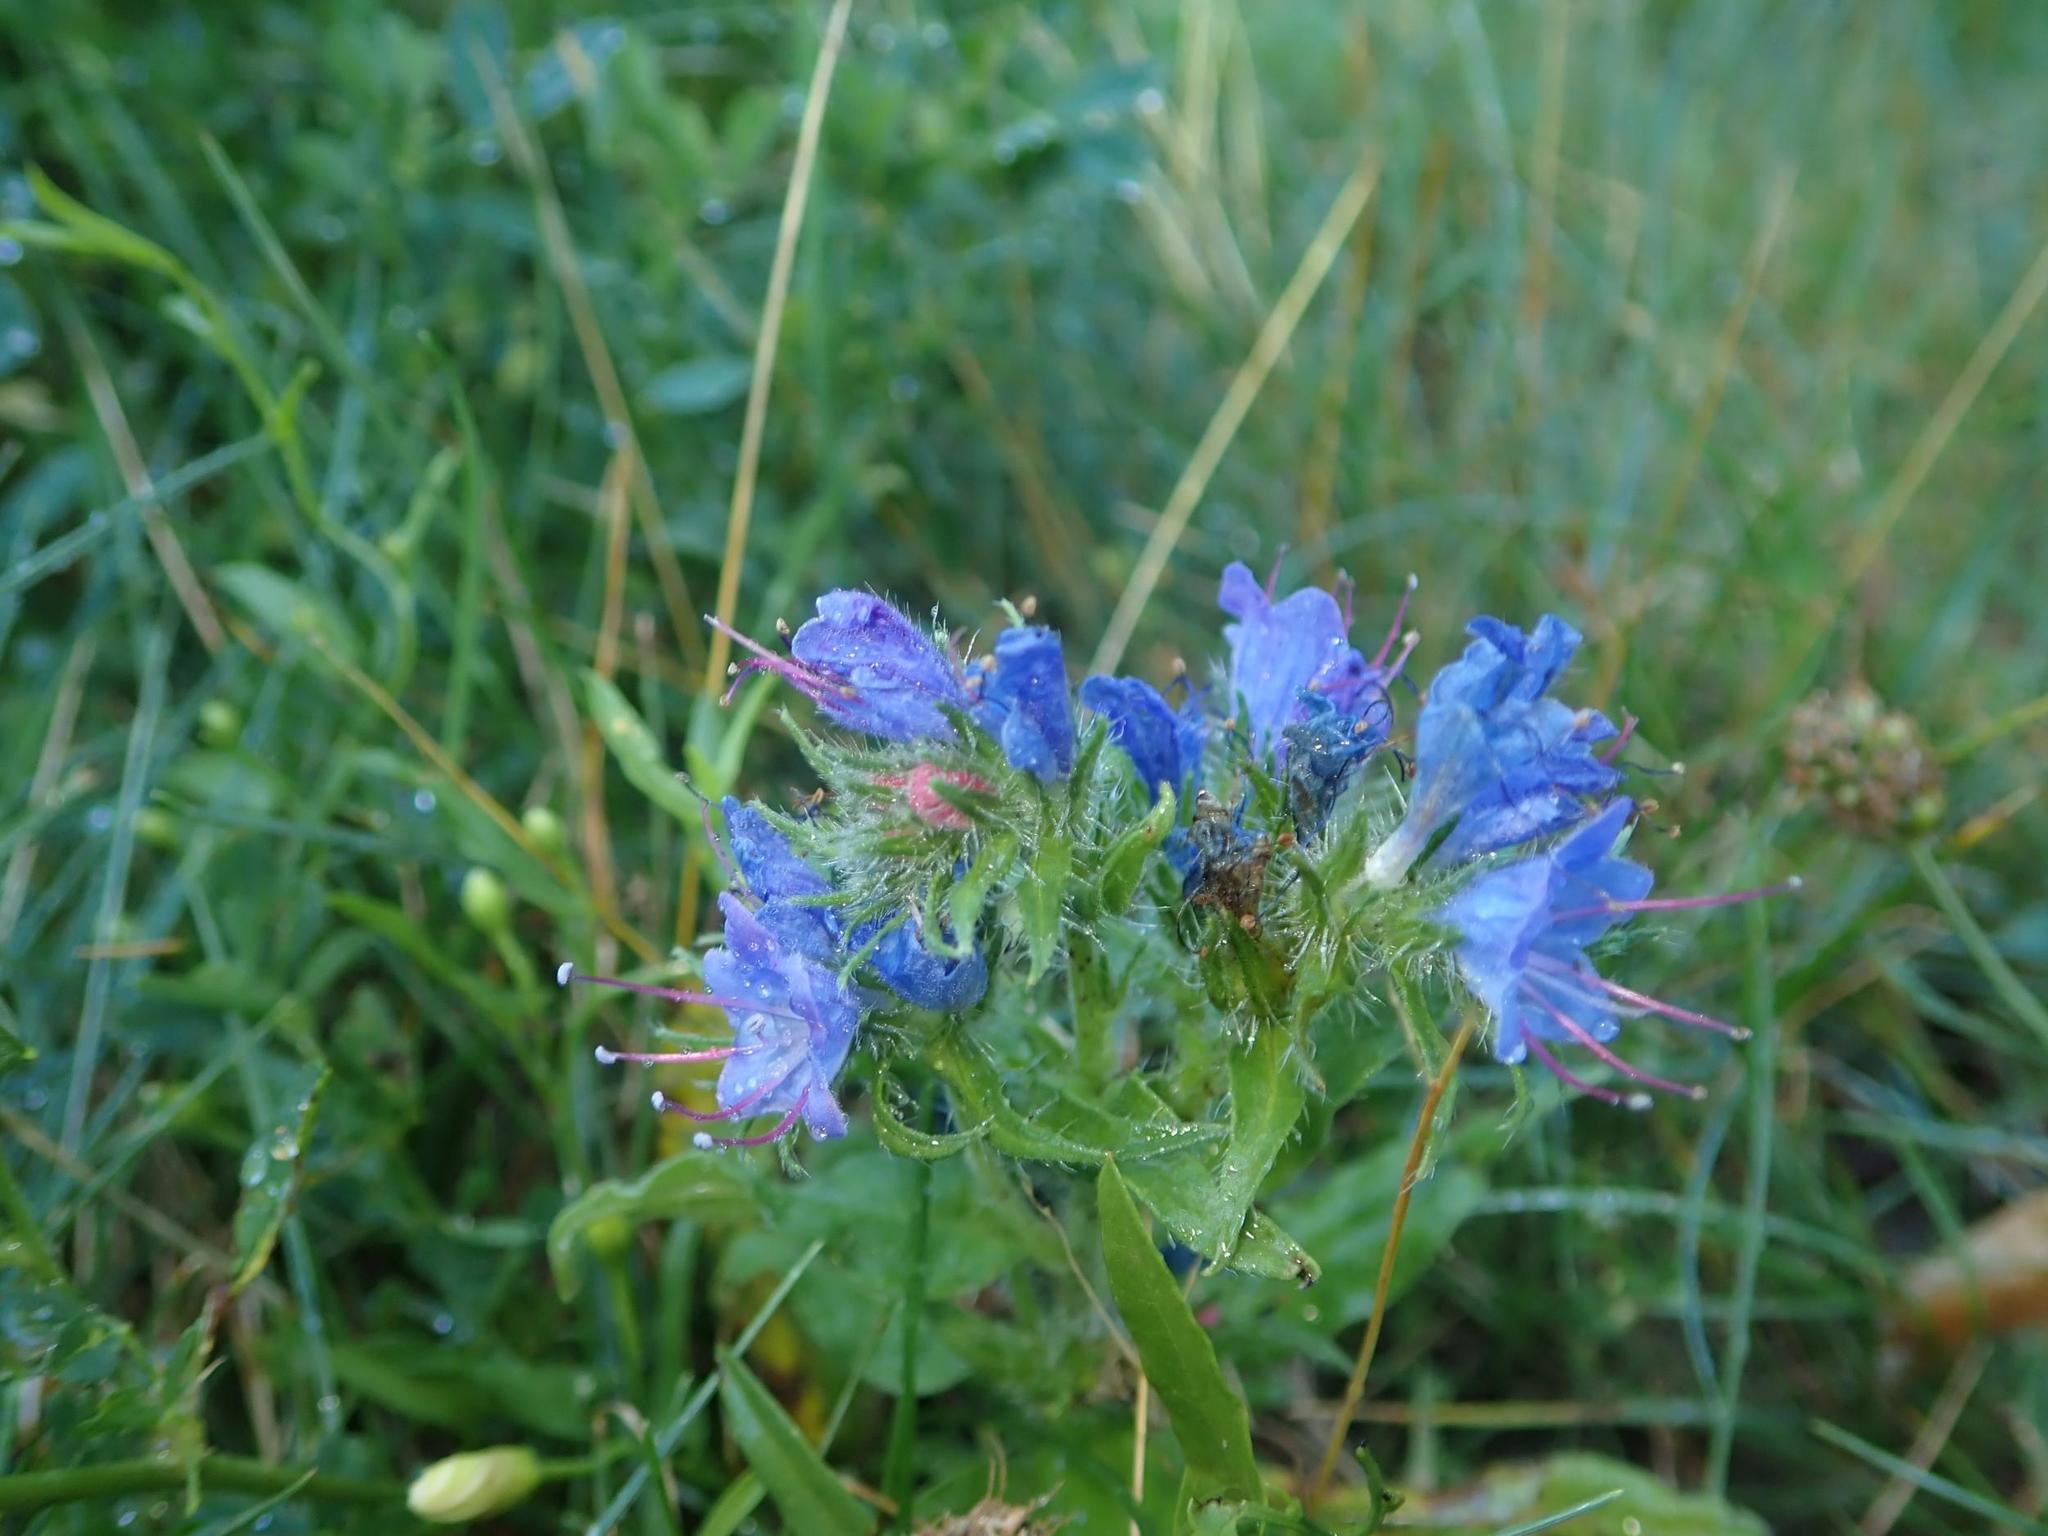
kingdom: Plantae
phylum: Tracheophyta
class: Magnoliopsida
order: Boraginales
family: Boraginaceae
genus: Echium
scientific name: Echium vulgare
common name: Common viper's bugloss
